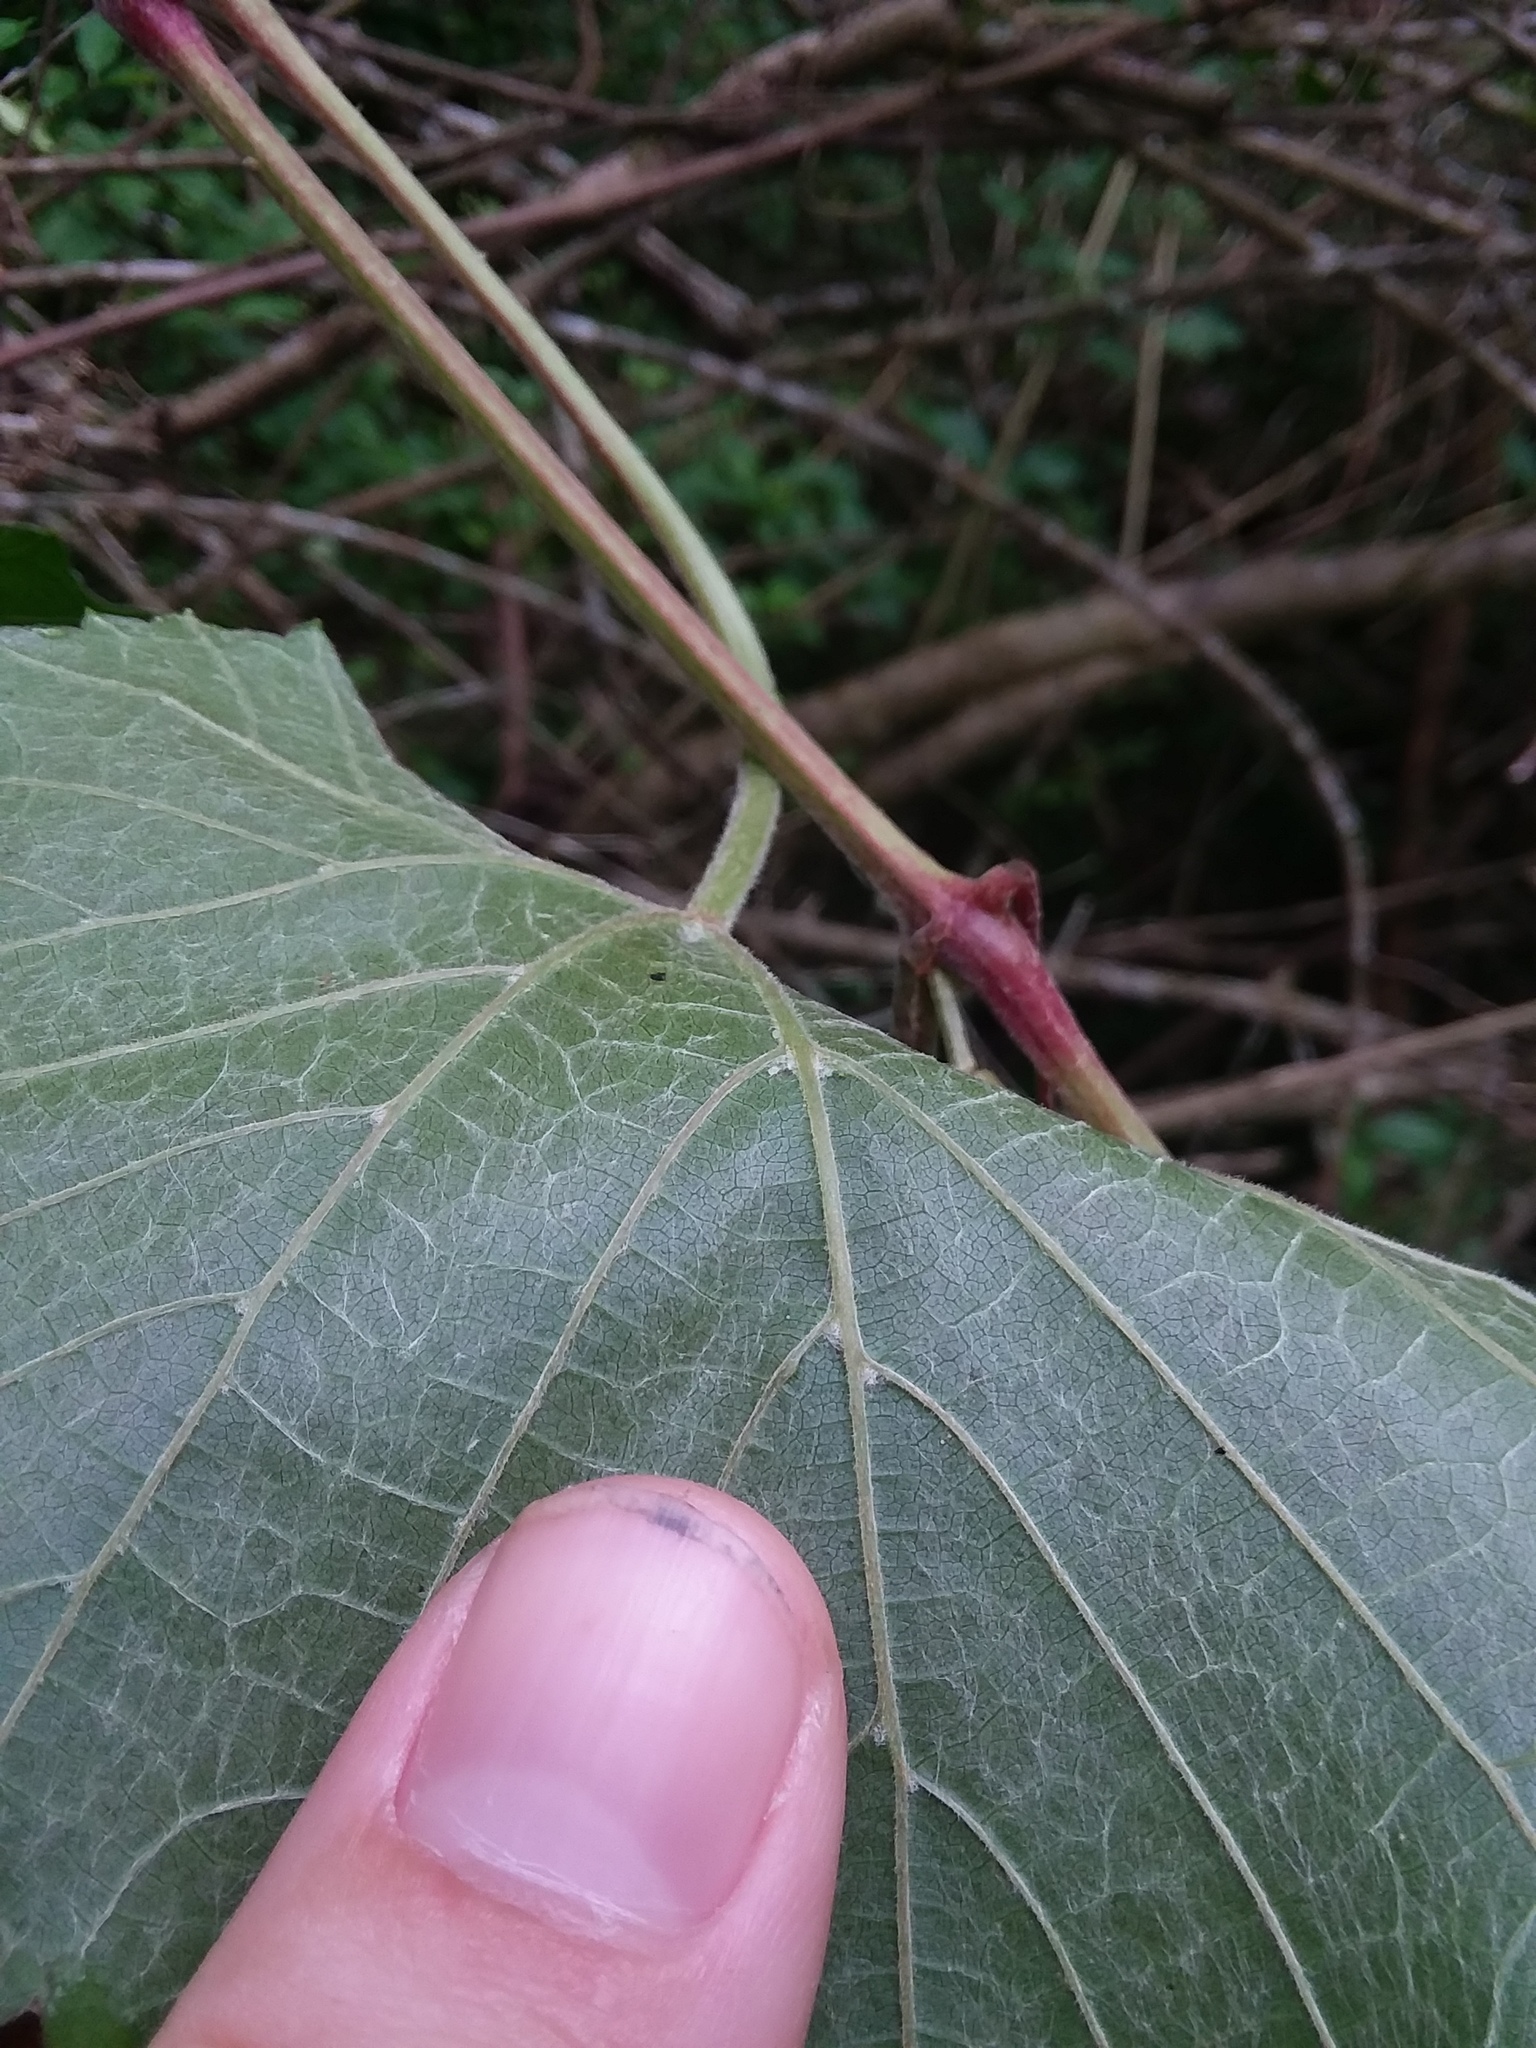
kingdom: Plantae
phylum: Tracheophyta
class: Magnoliopsida
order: Vitales
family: Vitaceae
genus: Vitis
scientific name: Vitis cinerea
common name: Ashy grape
